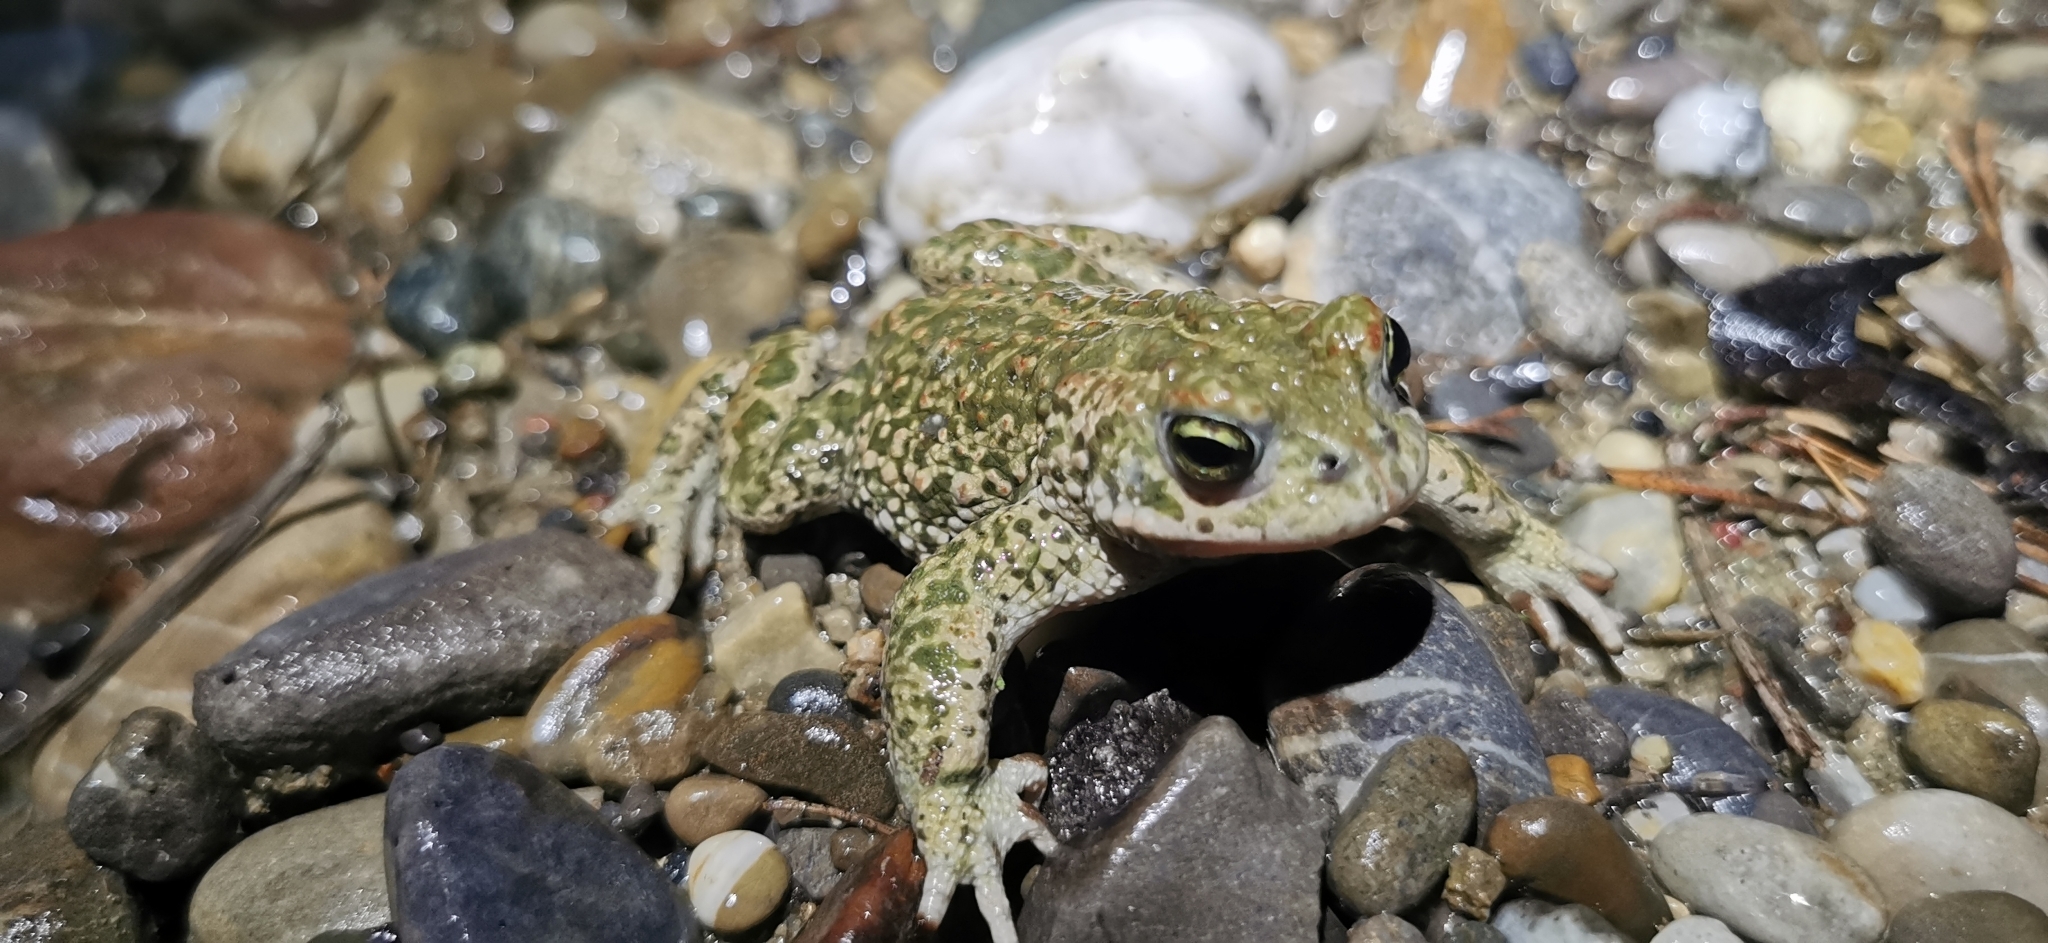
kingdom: Animalia
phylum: Chordata
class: Amphibia
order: Anura
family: Bufonidae
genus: Epidalea
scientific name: Epidalea calamita
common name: Natterjack toad
